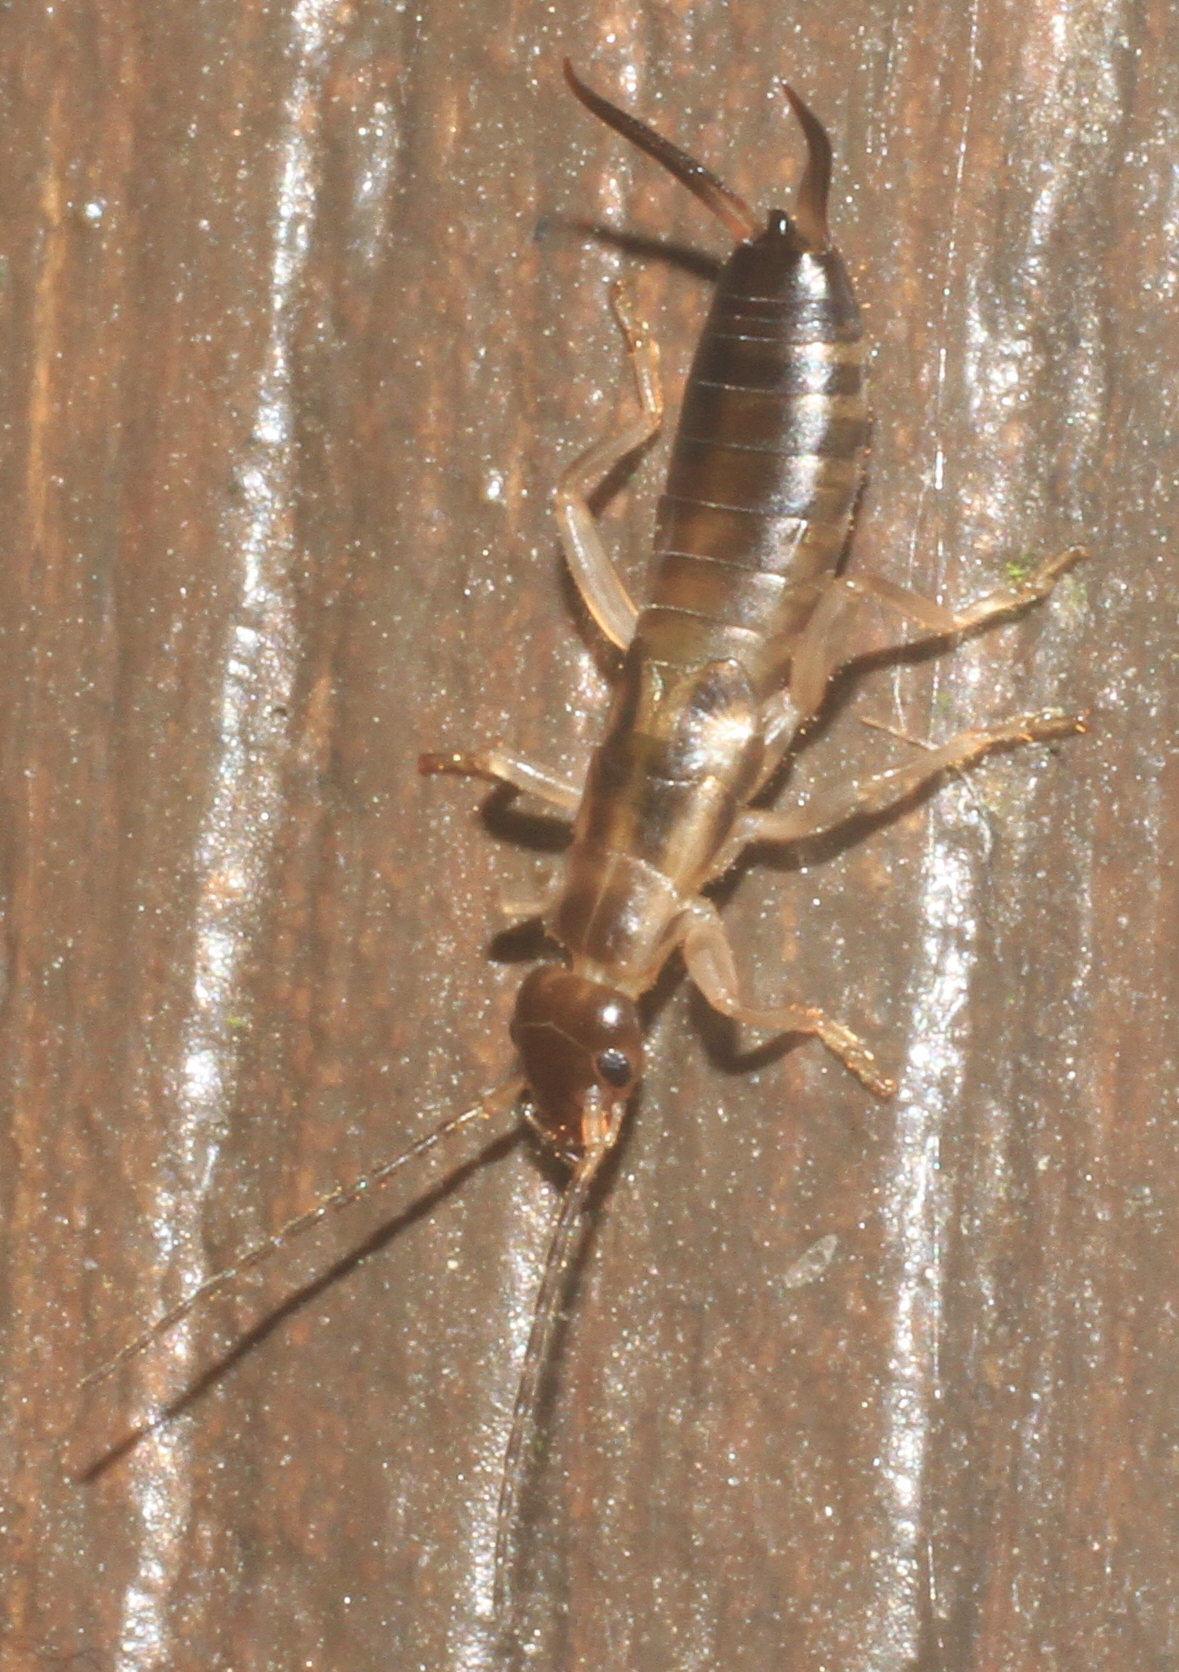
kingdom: Animalia
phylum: Arthropoda
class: Insecta
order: Dermaptera
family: Forficulidae
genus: Forficula
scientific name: Forficula
